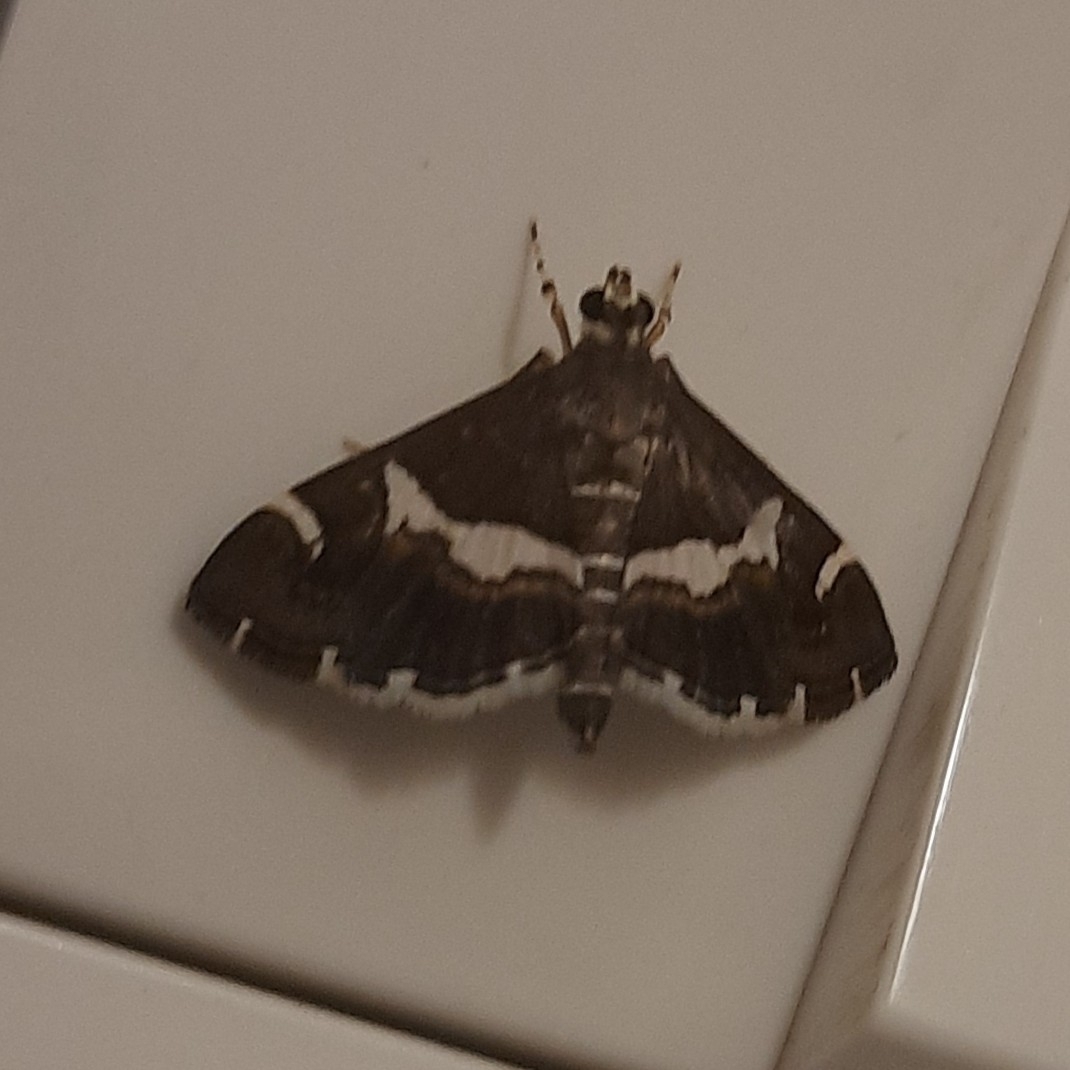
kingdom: Animalia
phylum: Arthropoda
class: Insecta
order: Lepidoptera
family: Crambidae
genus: Spoladea
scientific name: Spoladea recurvalis
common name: Beet webworm moth
